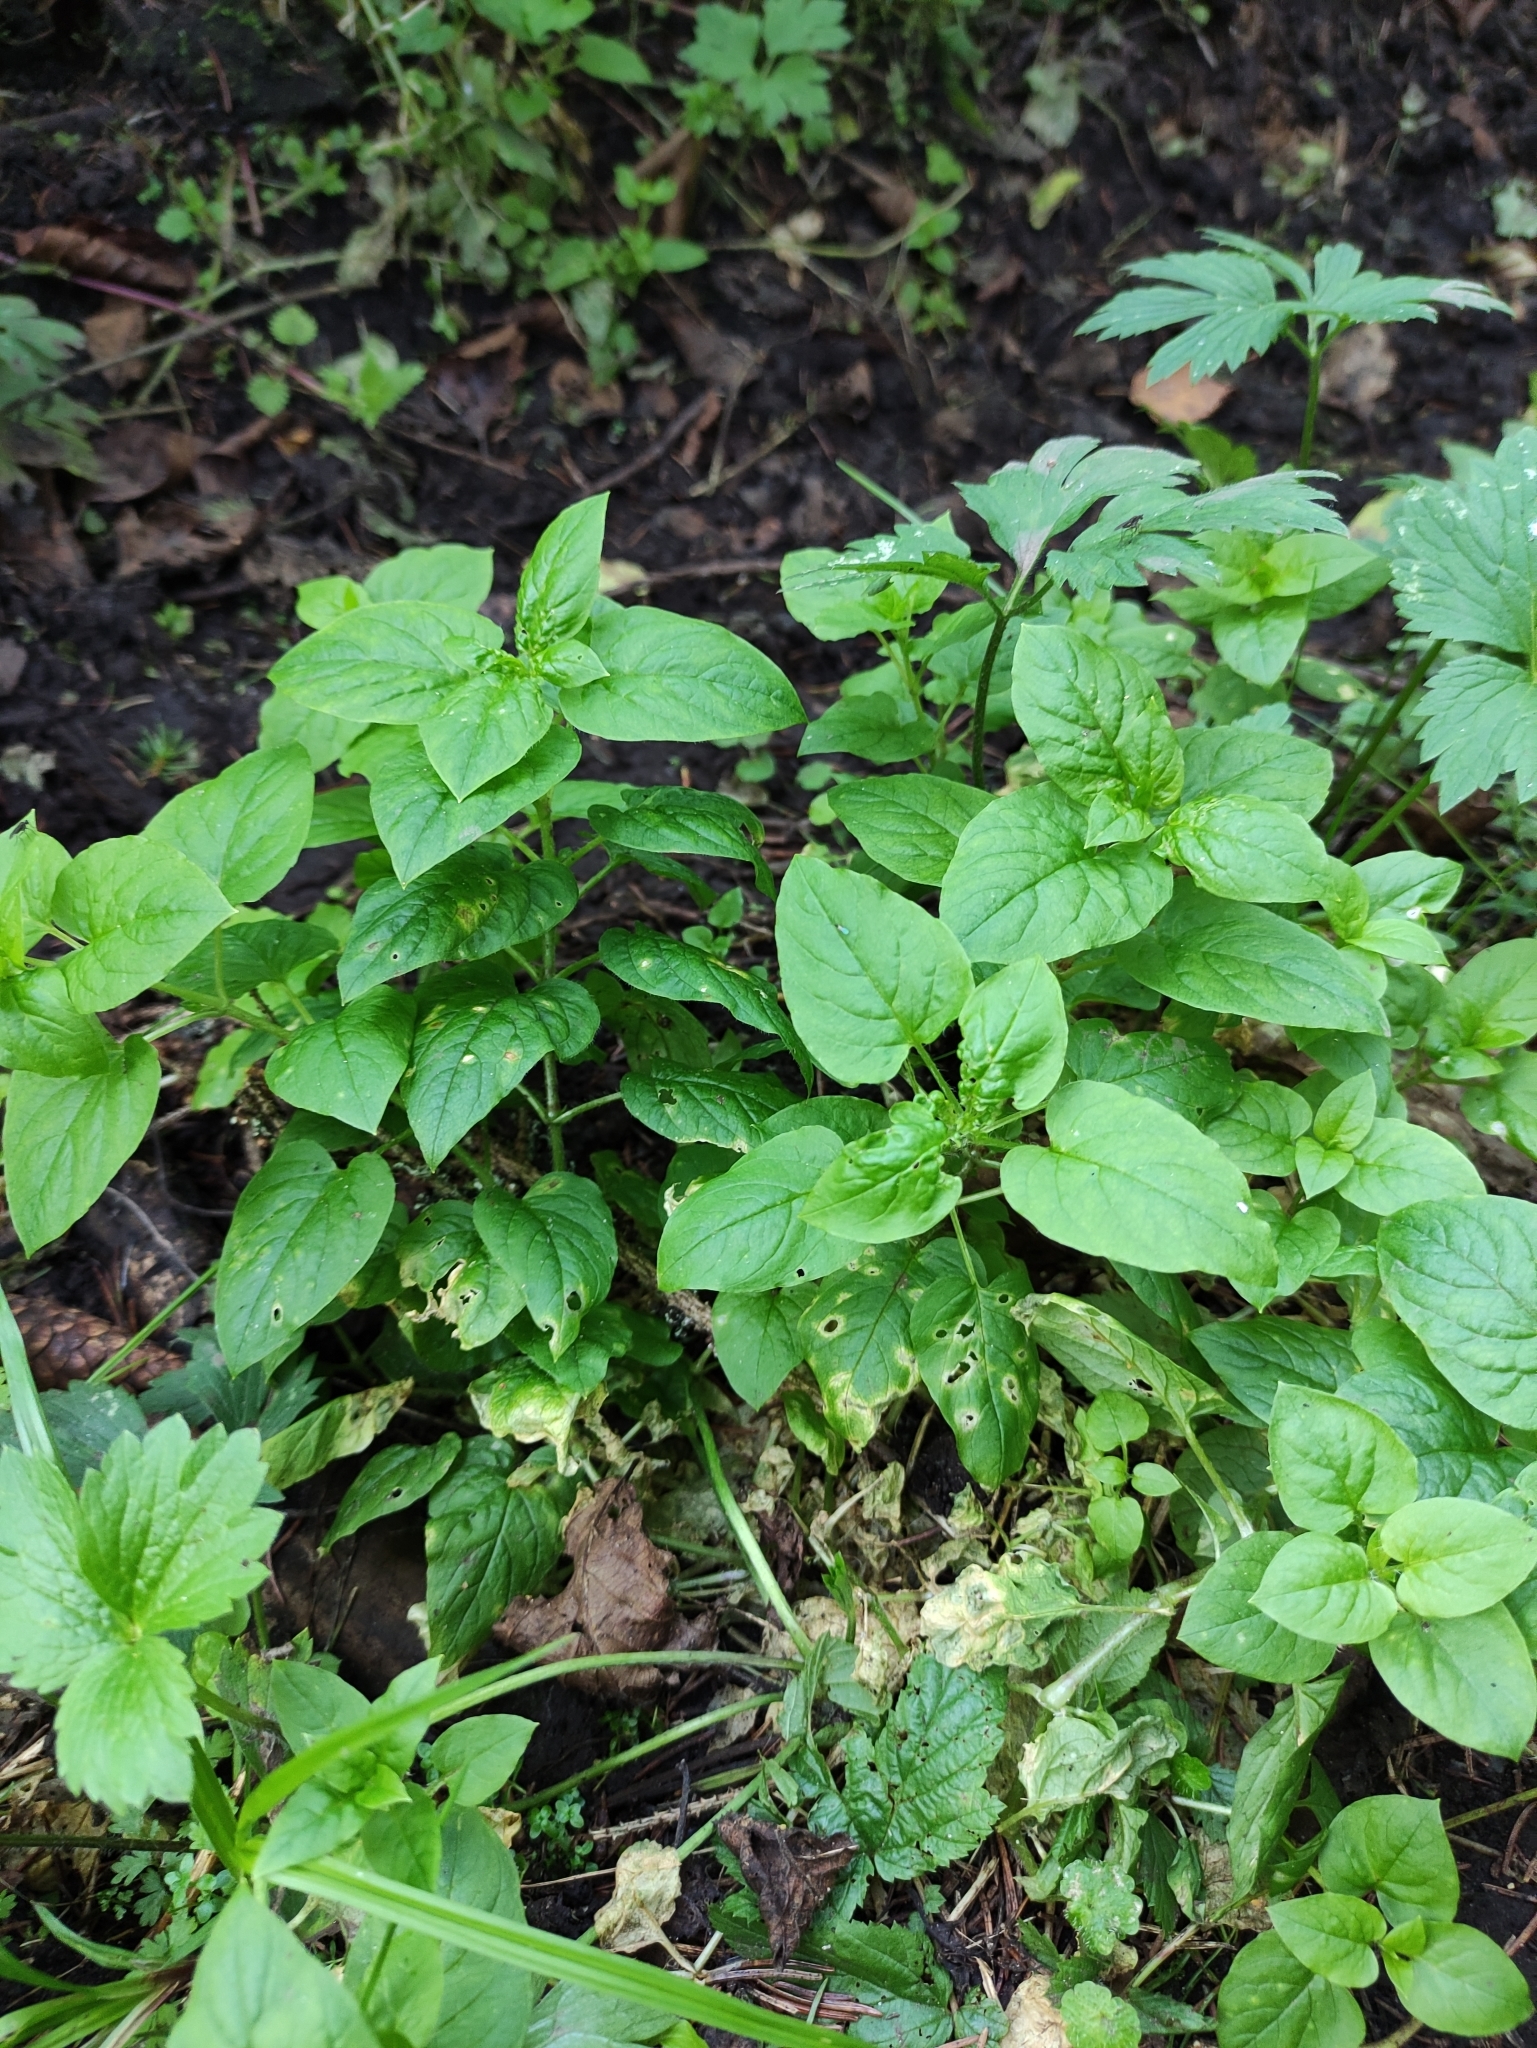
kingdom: Plantae
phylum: Tracheophyta
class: Magnoliopsida
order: Caryophyllales
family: Caryophyllaceae
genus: Stellaria
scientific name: Stellaria nemorum
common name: Wood stitchwort
